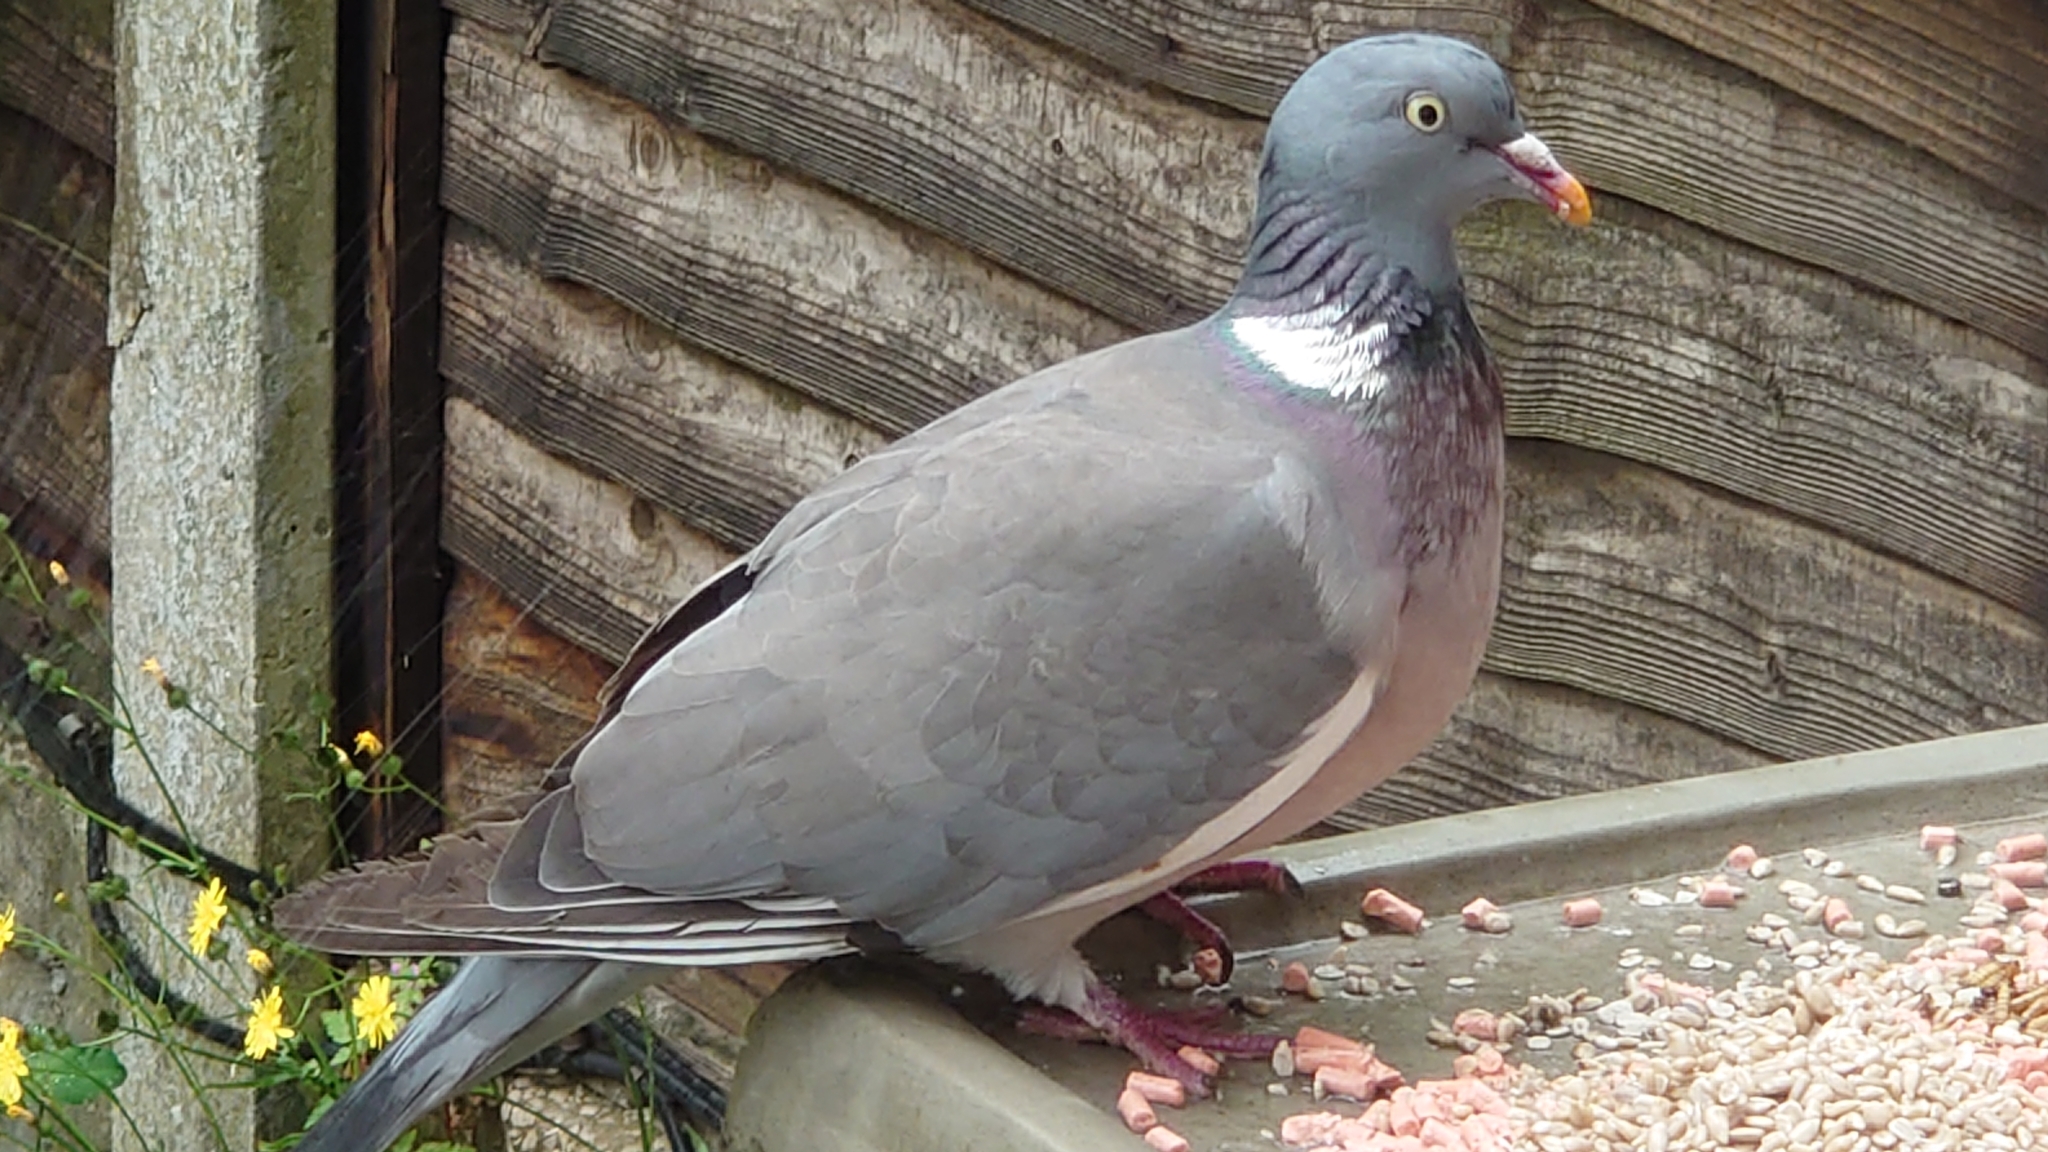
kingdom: Animalia
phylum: Chordata
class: Aves
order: Columbiformes
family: Columbidae
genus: Columba
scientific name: Columba palumbus
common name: Common wood pigeon
